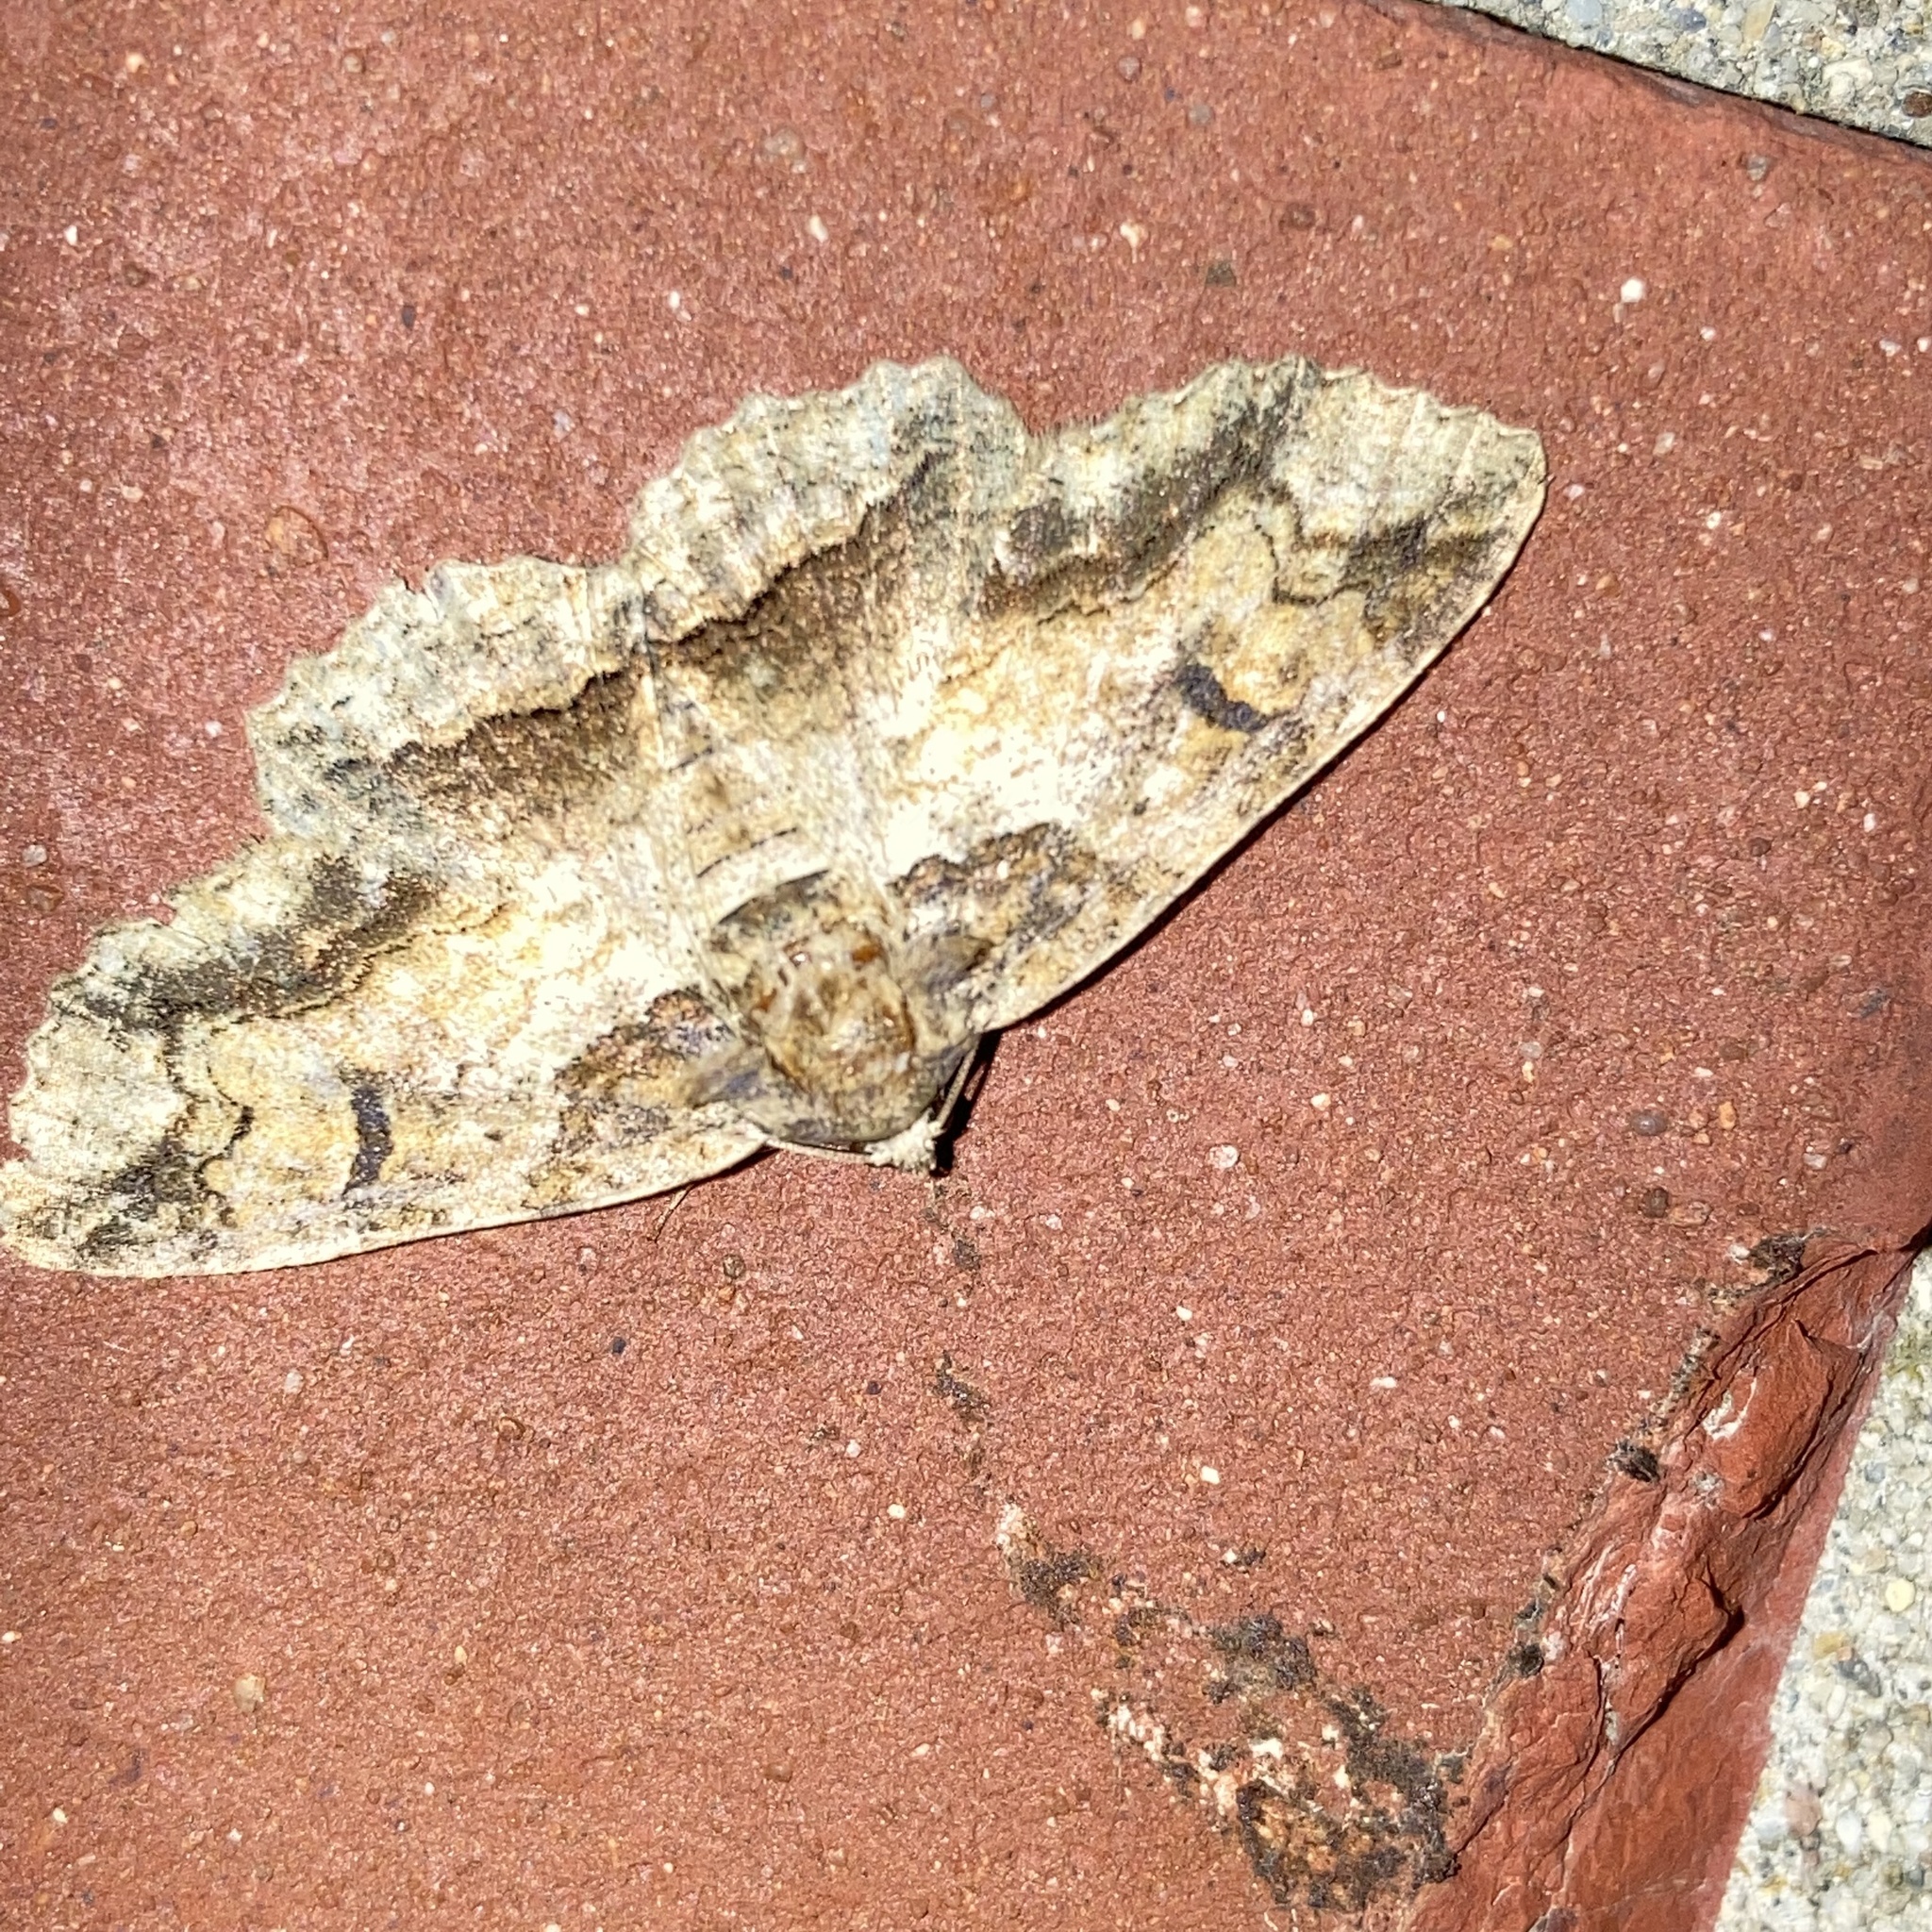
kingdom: Animalia
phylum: Arthropoda
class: Insecta
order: Lepidoptera
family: Erebidae
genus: Zale
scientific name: Zale galbanata
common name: Maple zale
